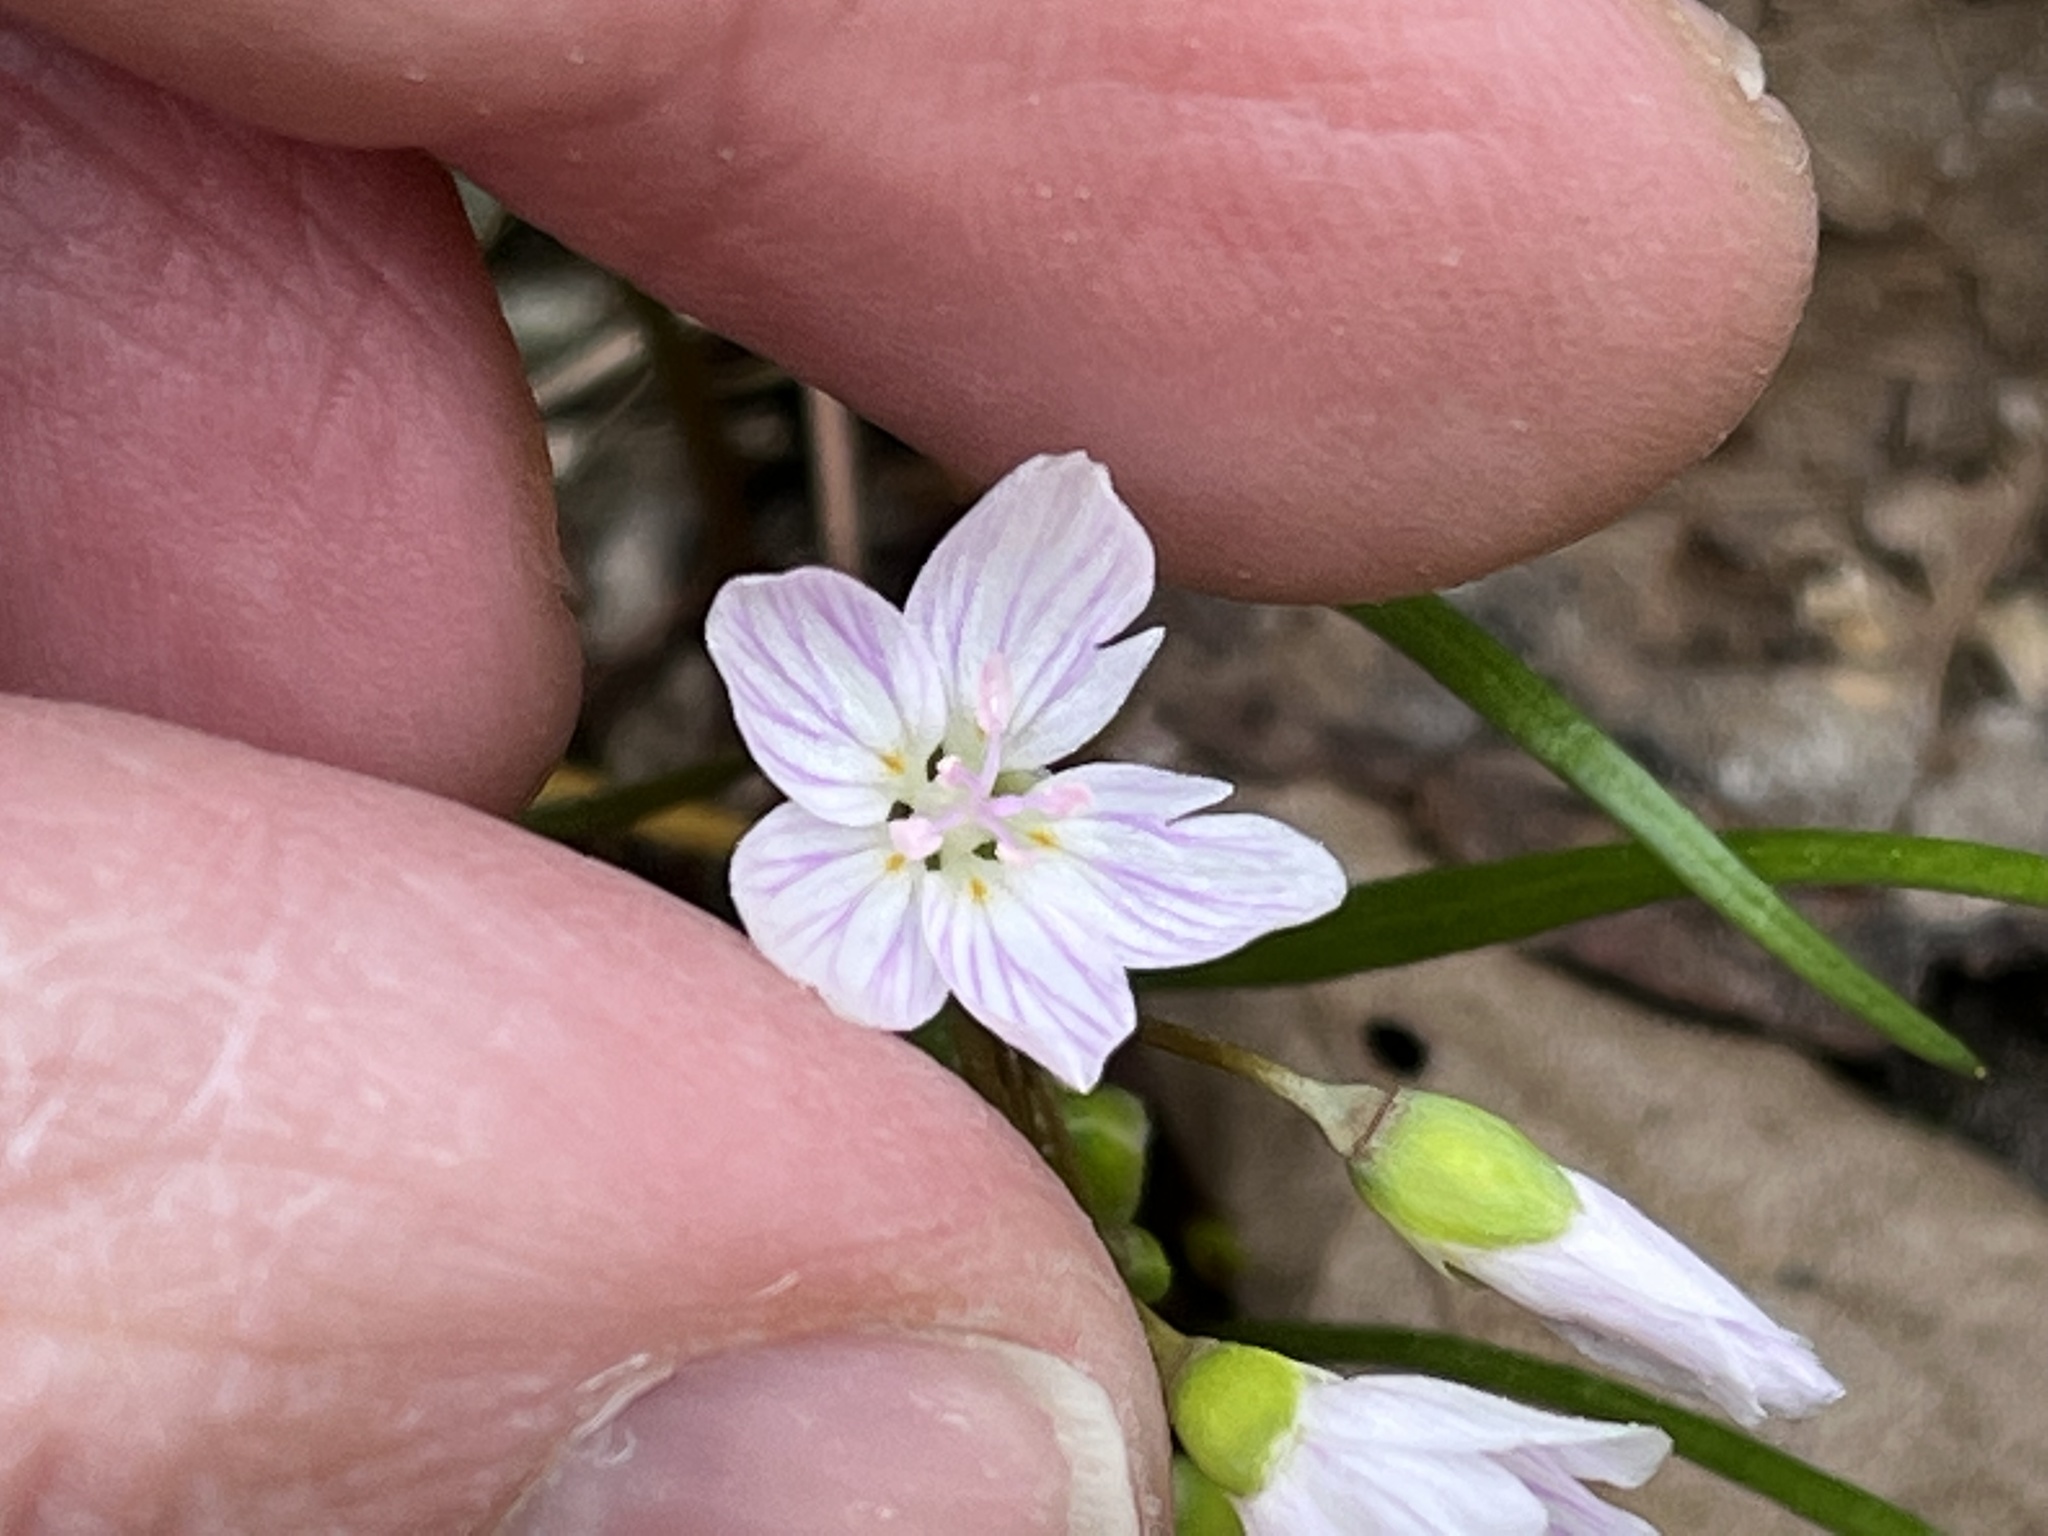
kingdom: Plantae
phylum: Tracheophyta
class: Magnoliopsida
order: Caryophyllales
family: Montiaceae
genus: Claytonia
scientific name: Claytonia virginica
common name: Virginia springbeauty
